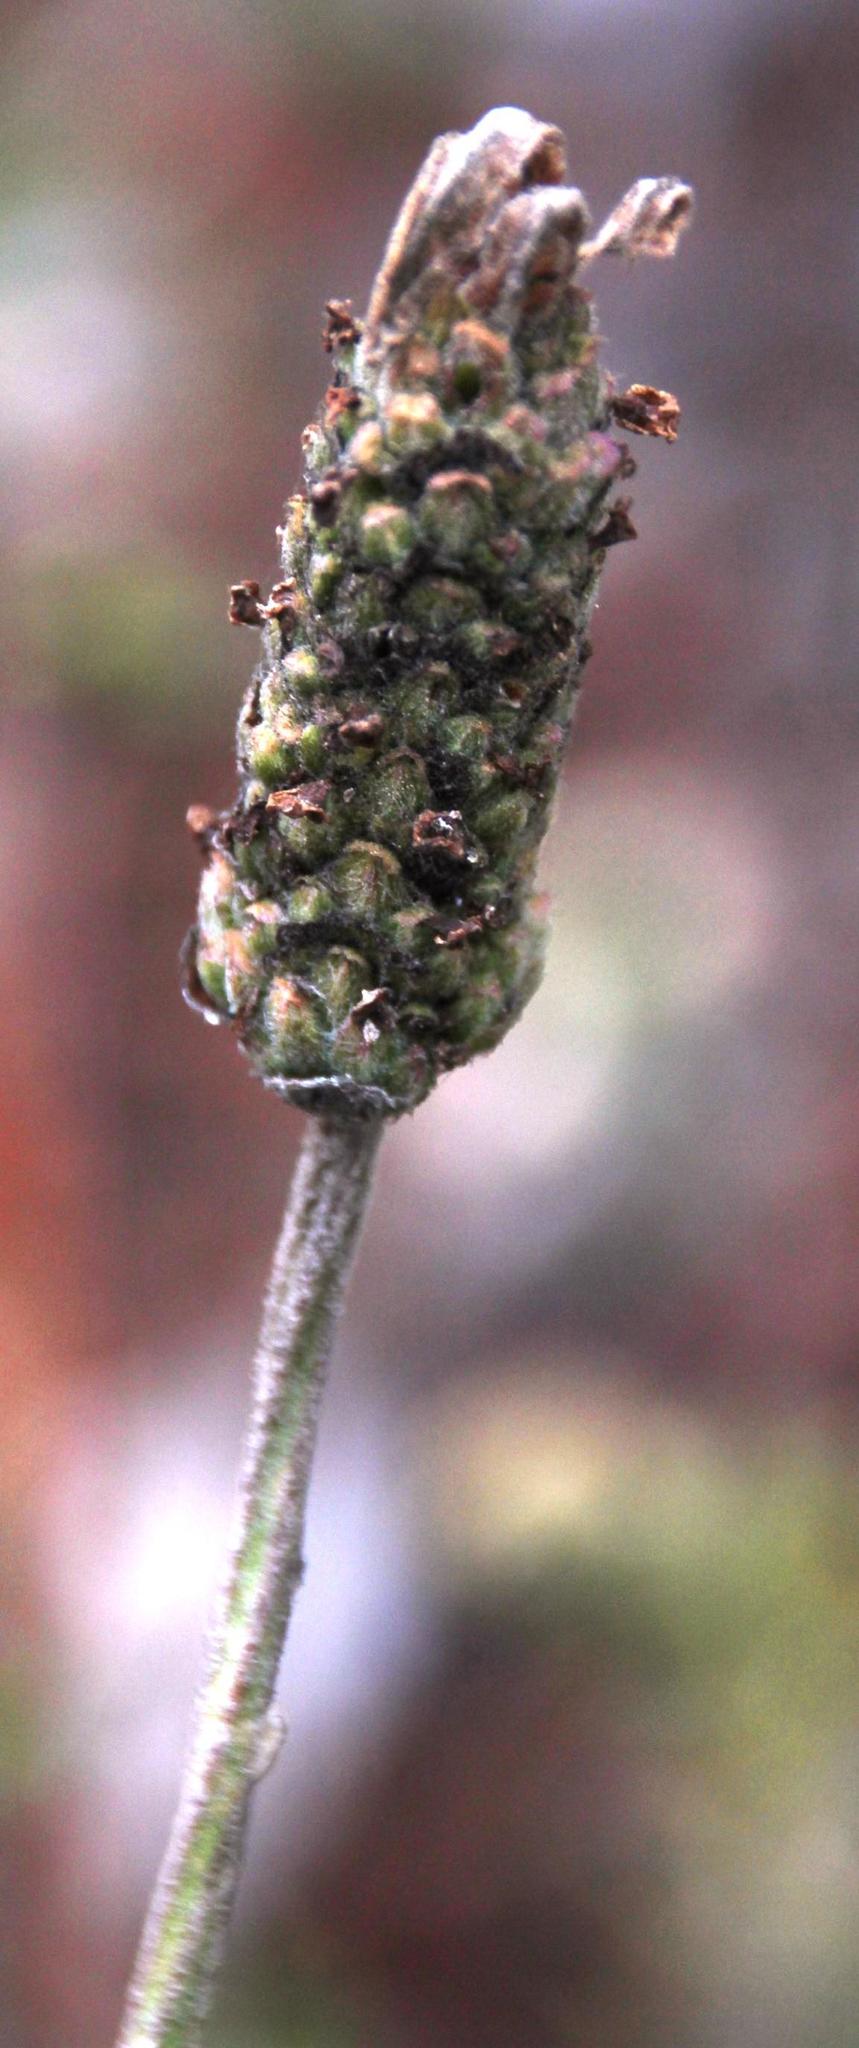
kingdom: Plantae
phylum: Tracheophyta
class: Magnoliopsida
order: Lamiales
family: Lamiaceae
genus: Lavandula
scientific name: Lavandula pedunculata
